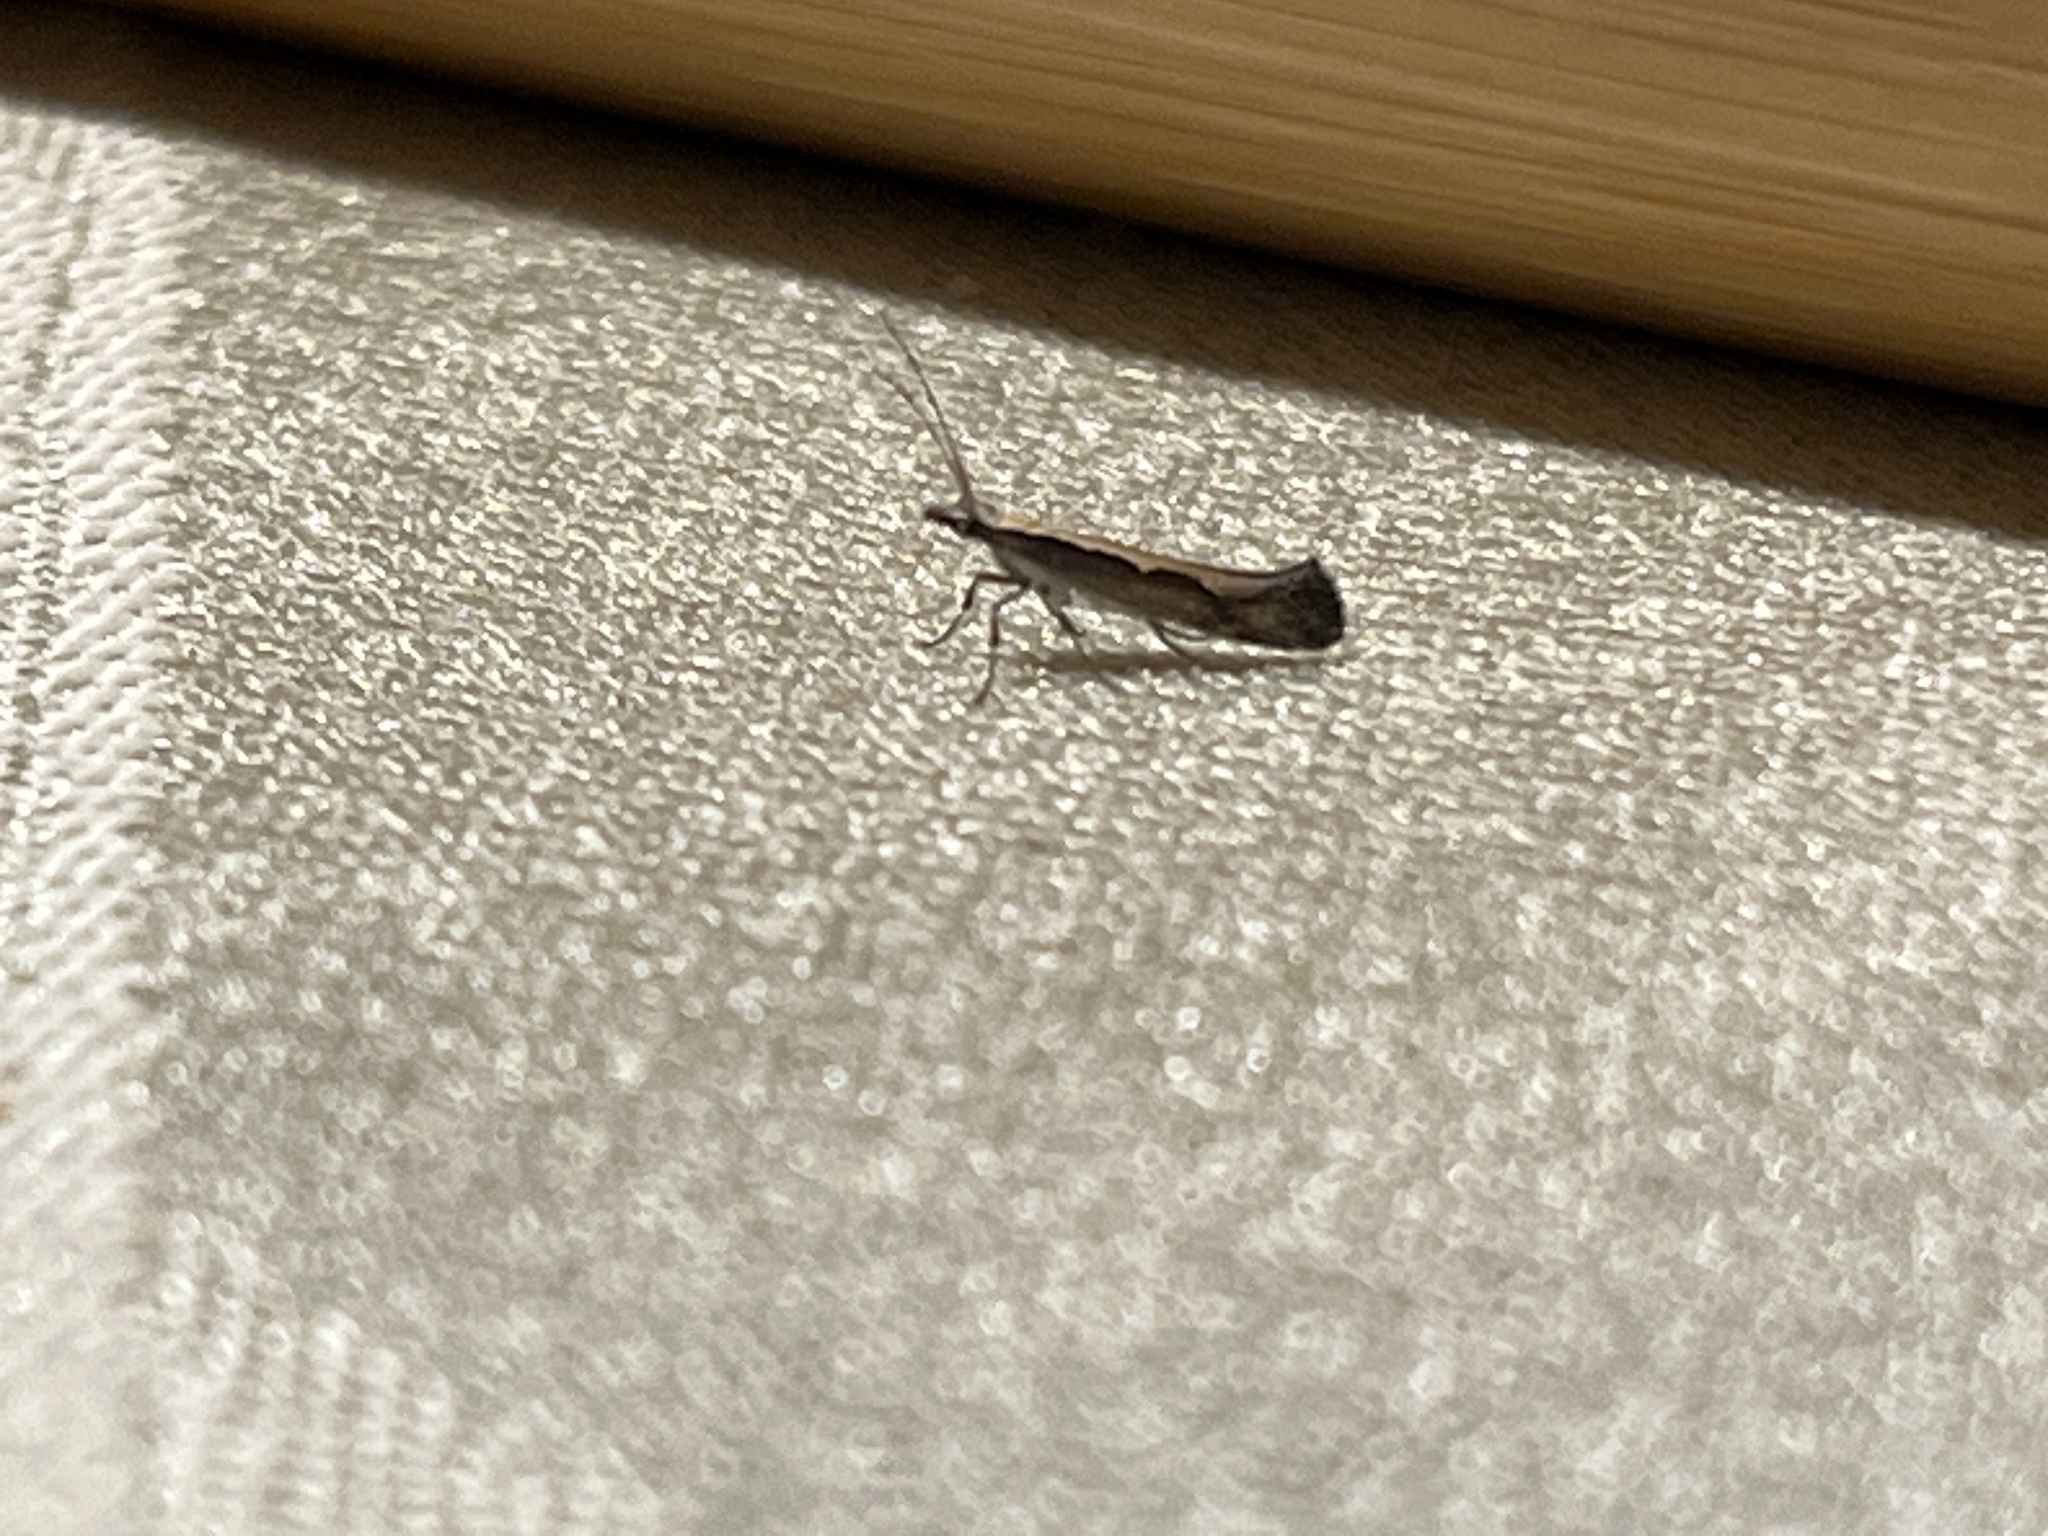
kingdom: Animalia
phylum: Arthropoda
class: Insecta
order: Lepidoptera
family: Plutellidae
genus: Plutella
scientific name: Plutella xylostella
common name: Diamond-back moth
